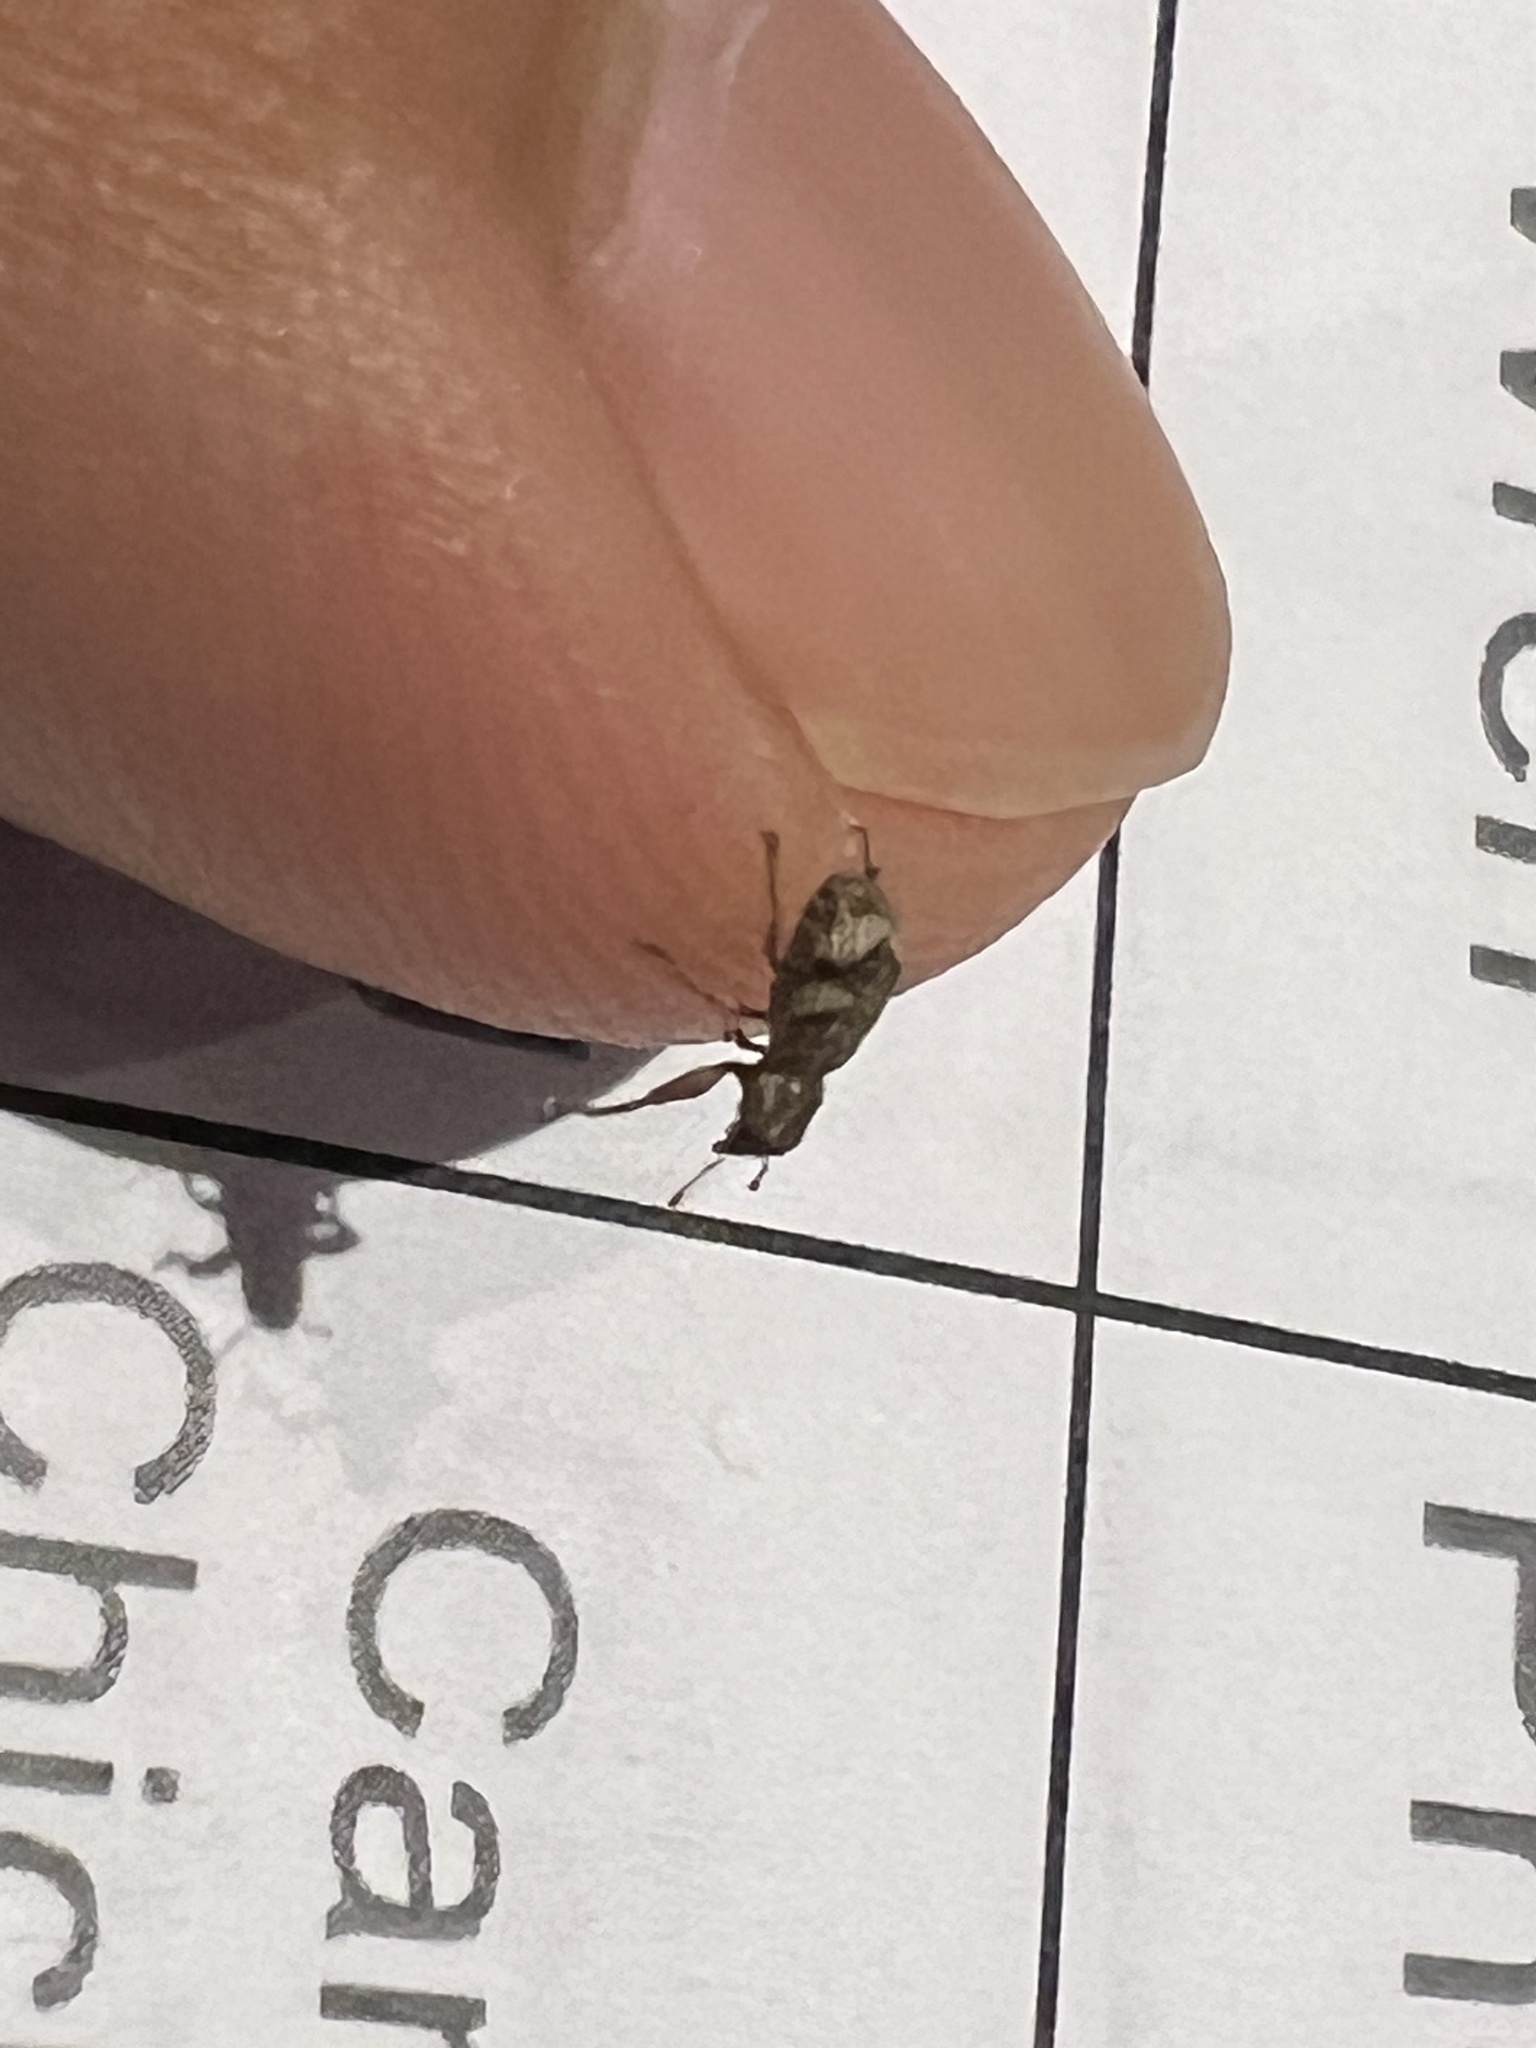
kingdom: Animalia
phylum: Arthropoda
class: Insecta
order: Coleoptera
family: Curculionidae
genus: Pandeleteius
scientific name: Pandeleteius cinereus
